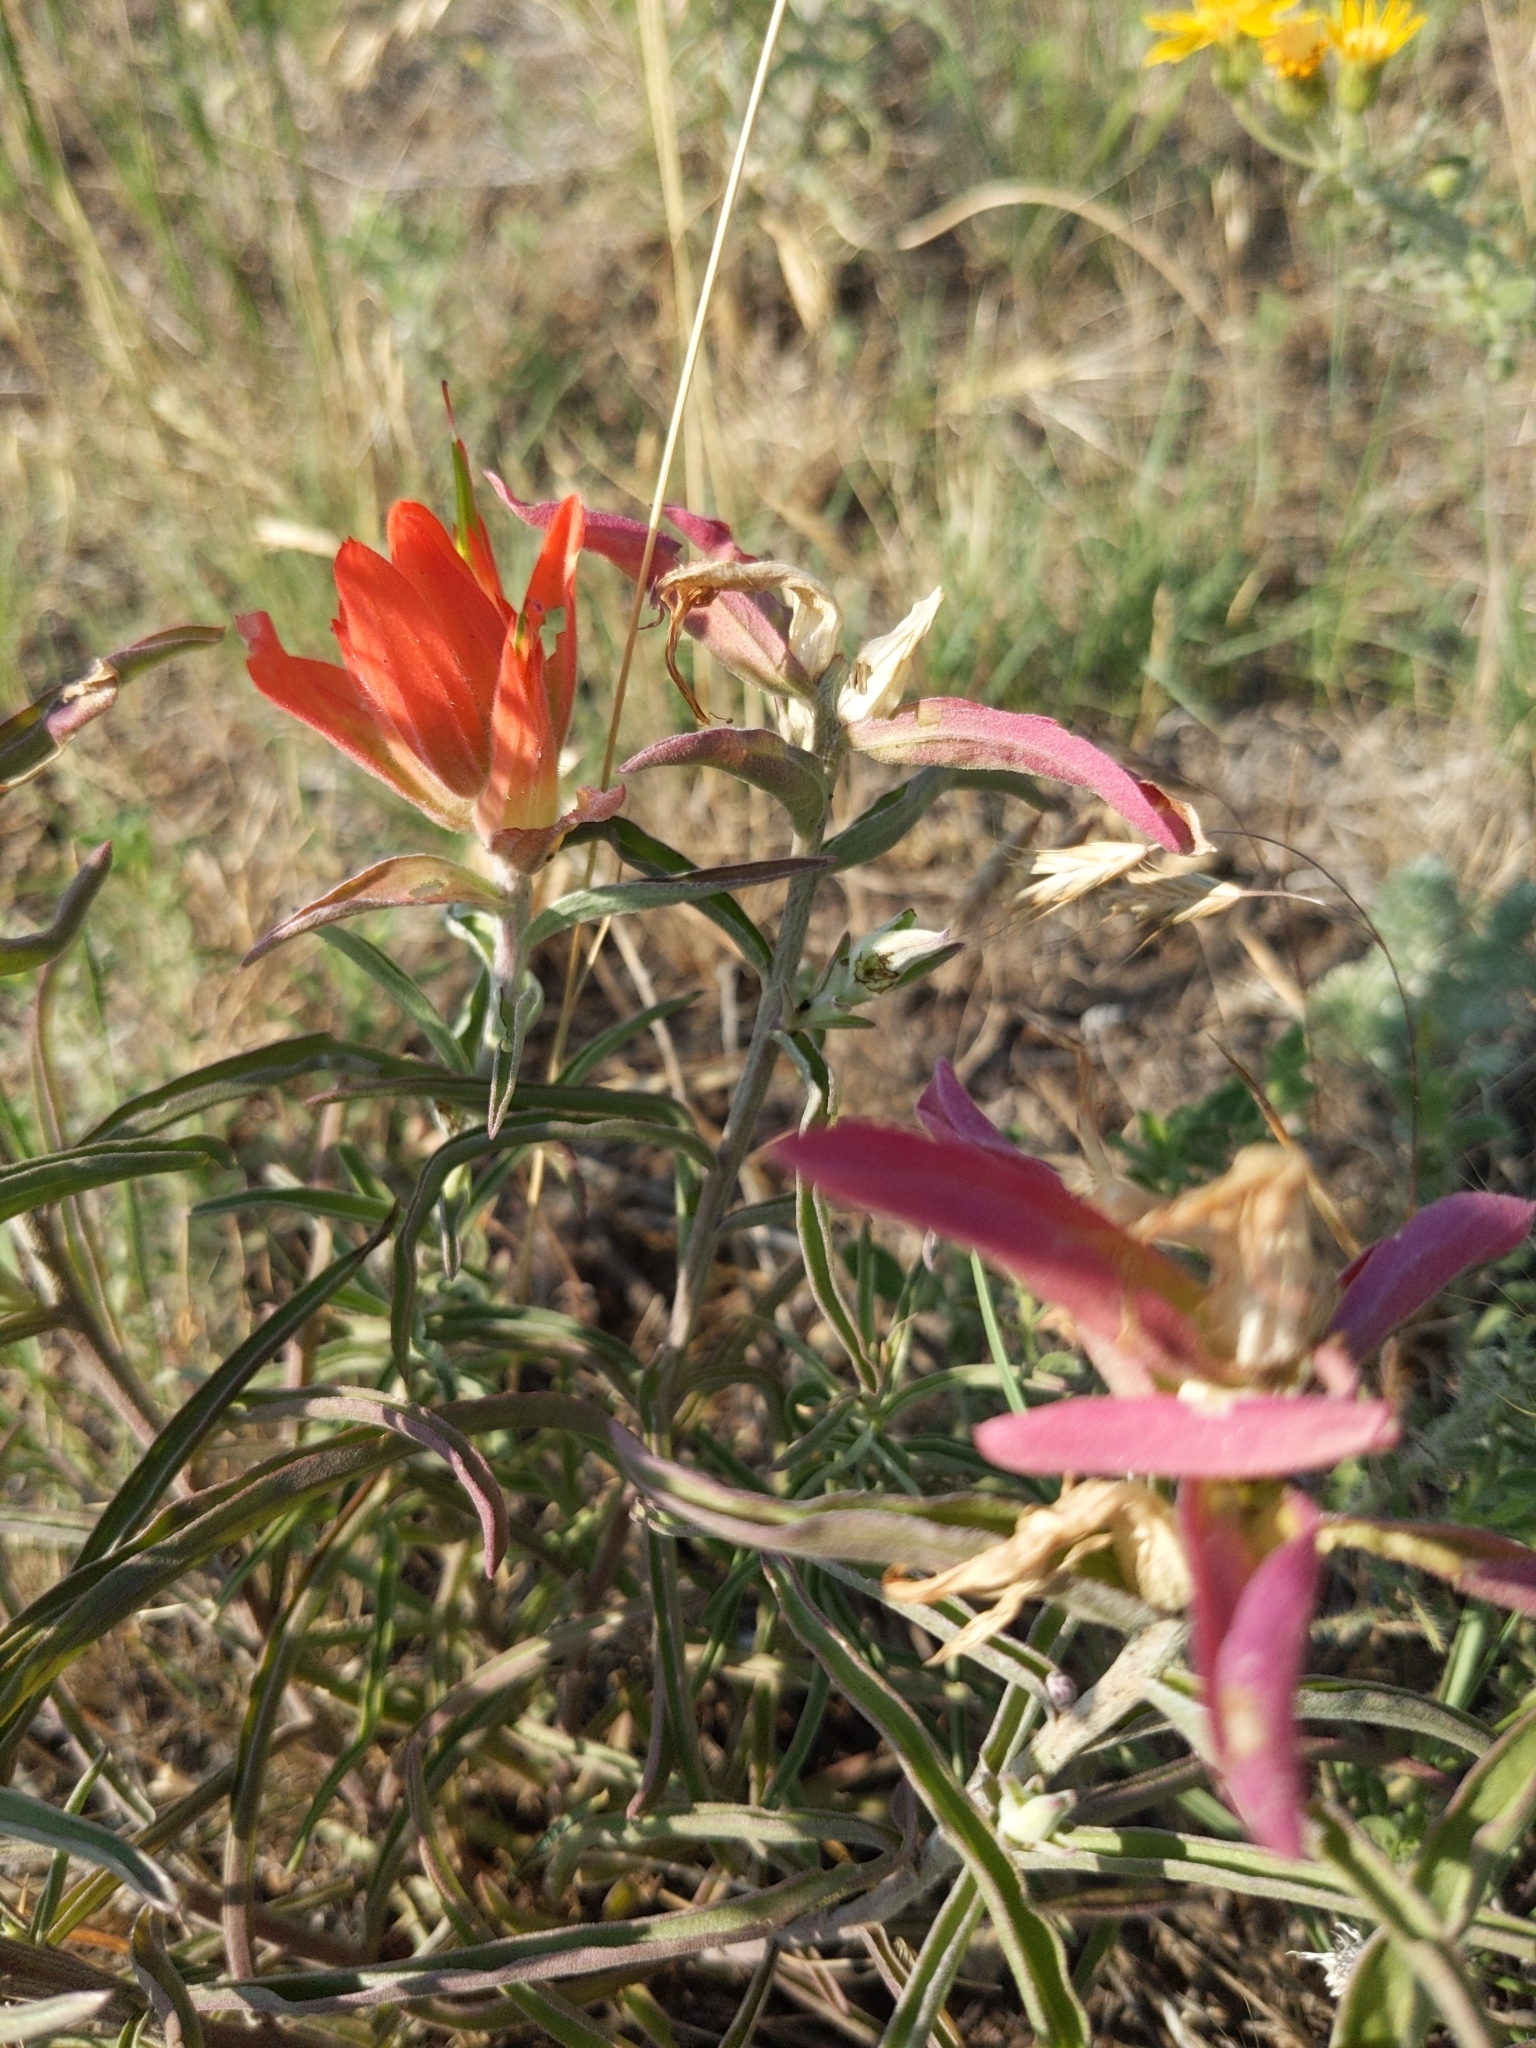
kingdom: Plantae
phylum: Tracheophyta
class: Magnoliopsida
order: Lamiales
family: Orobanchaceae
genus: Castilleja
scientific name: Castilleja integra
